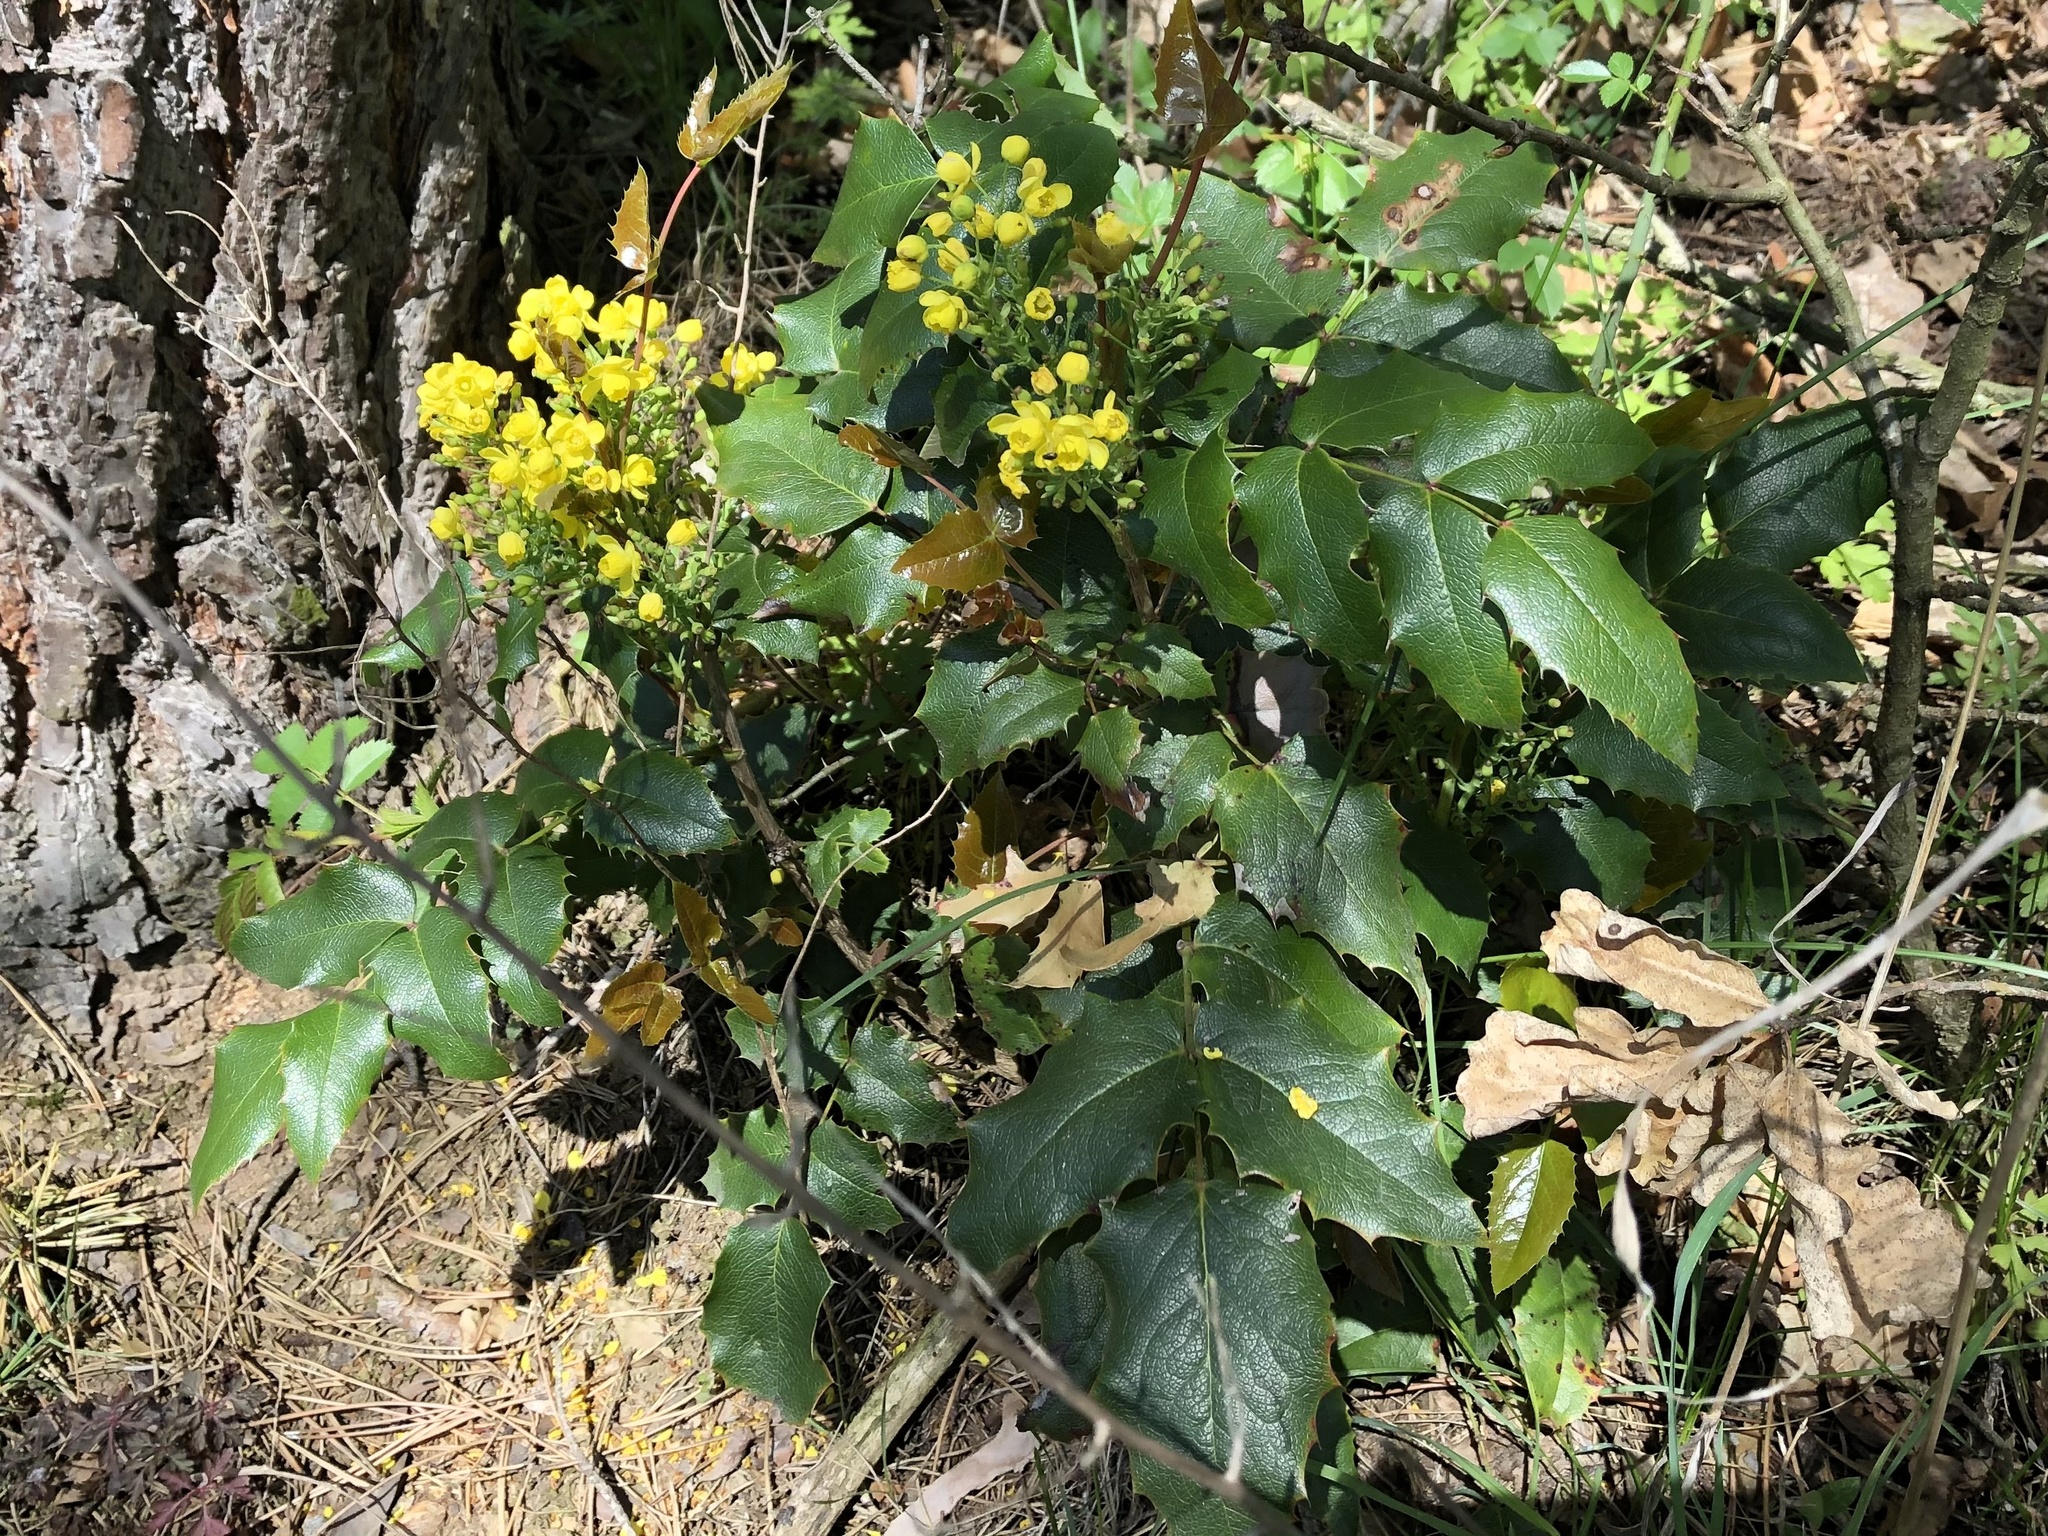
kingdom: Plantae
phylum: Tracheophyta
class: Magnoliopsida
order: Ranunculales
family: Berberidaceae
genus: Mahonia
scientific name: Mahonia aquifolium
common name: Oregon-grape
